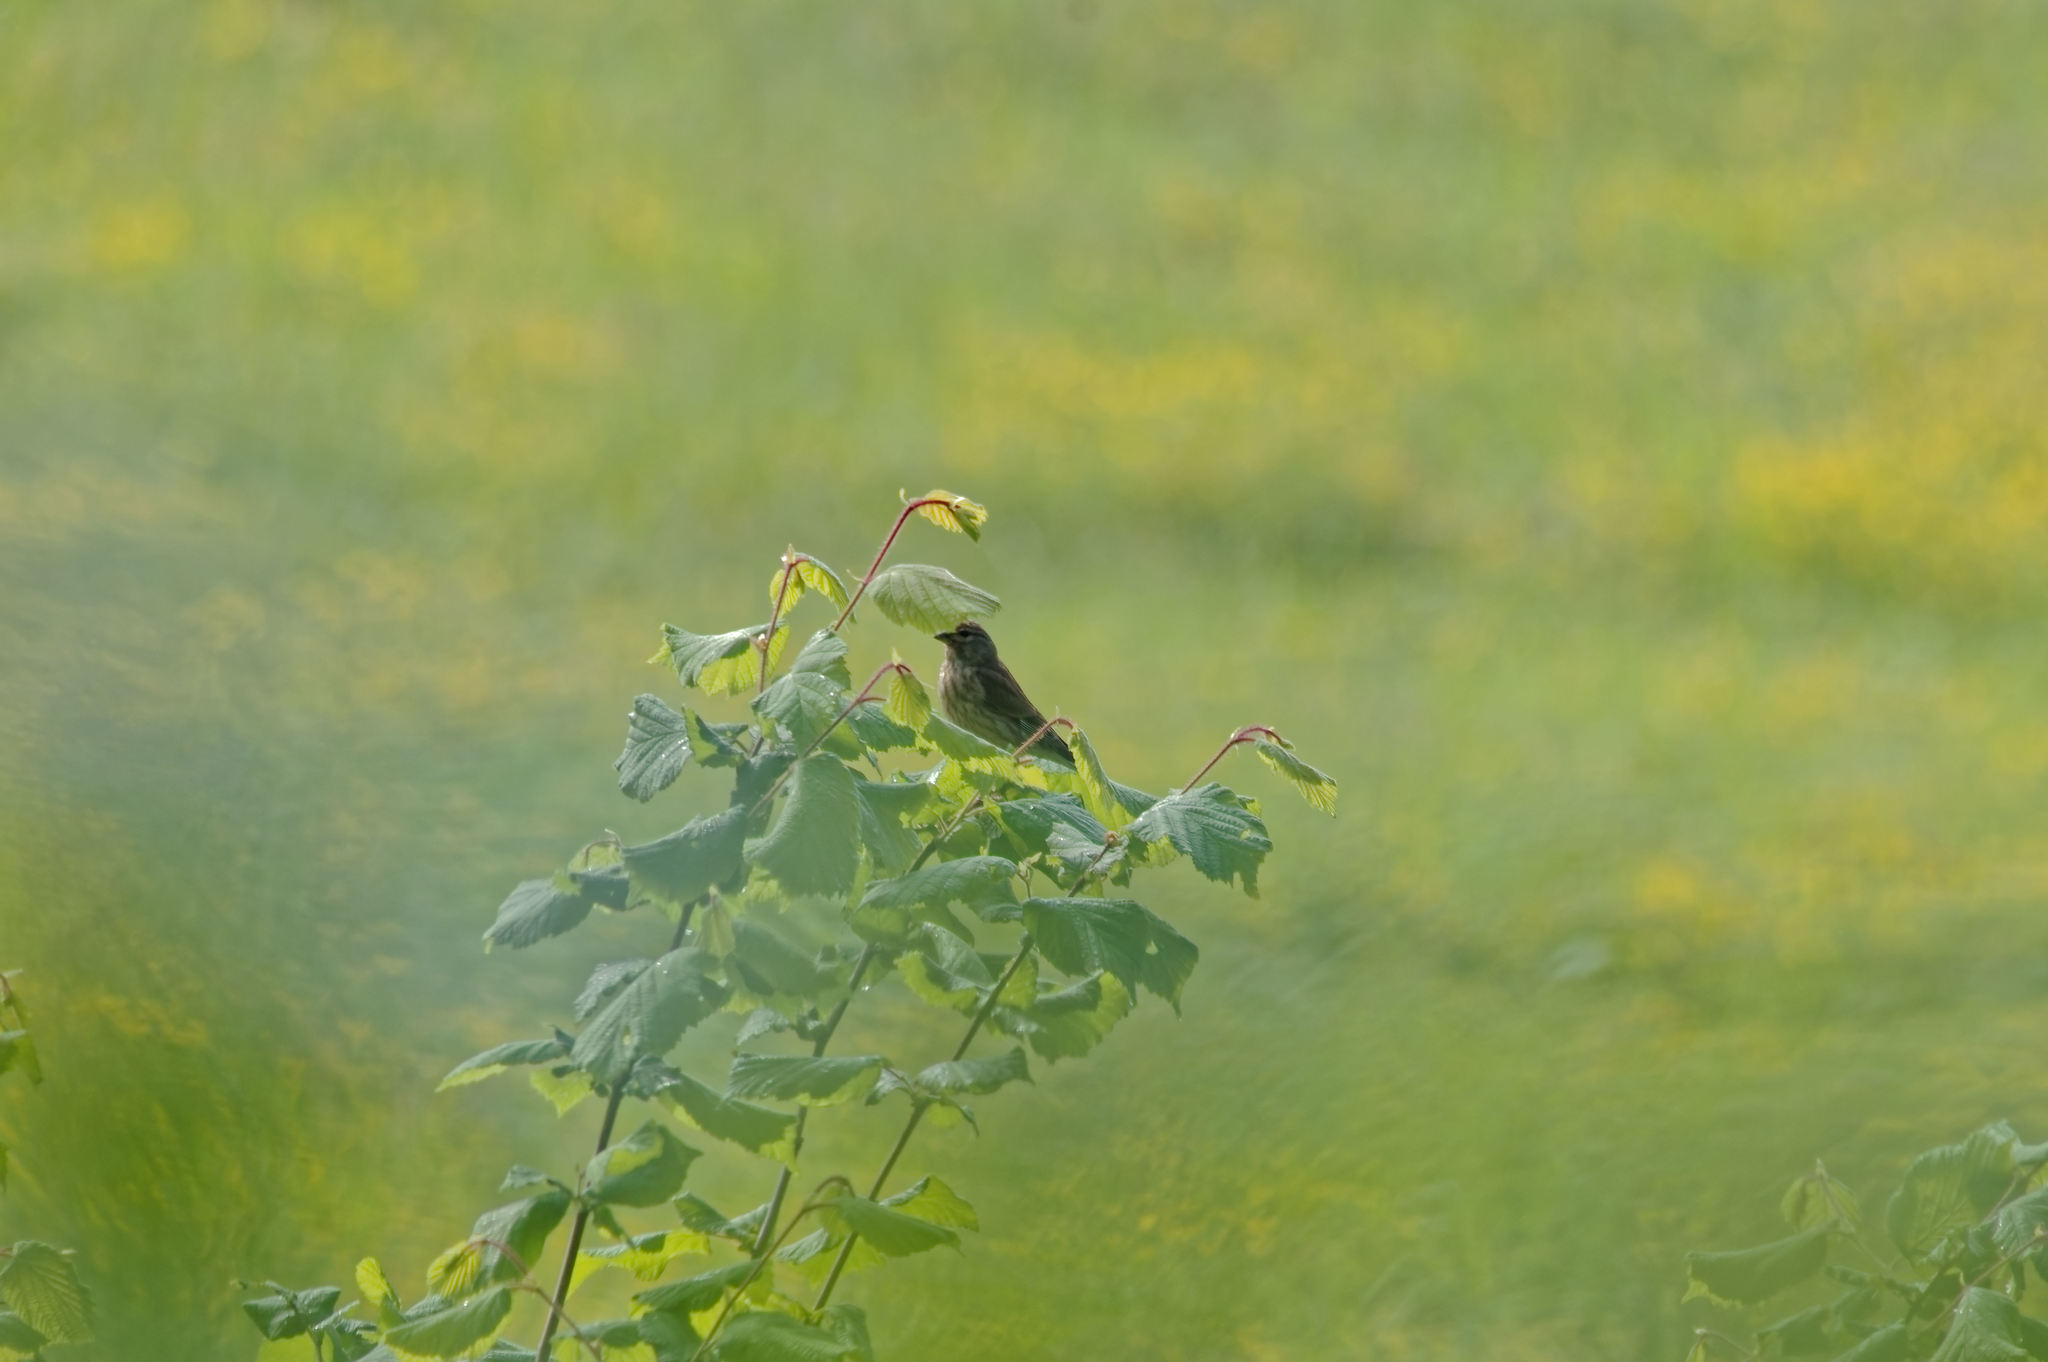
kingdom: Animalia
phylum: Chordata
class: Aves
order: Passeriformes
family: Fringillidae
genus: Linaria
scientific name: Linaria cannabina
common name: Common linnet
